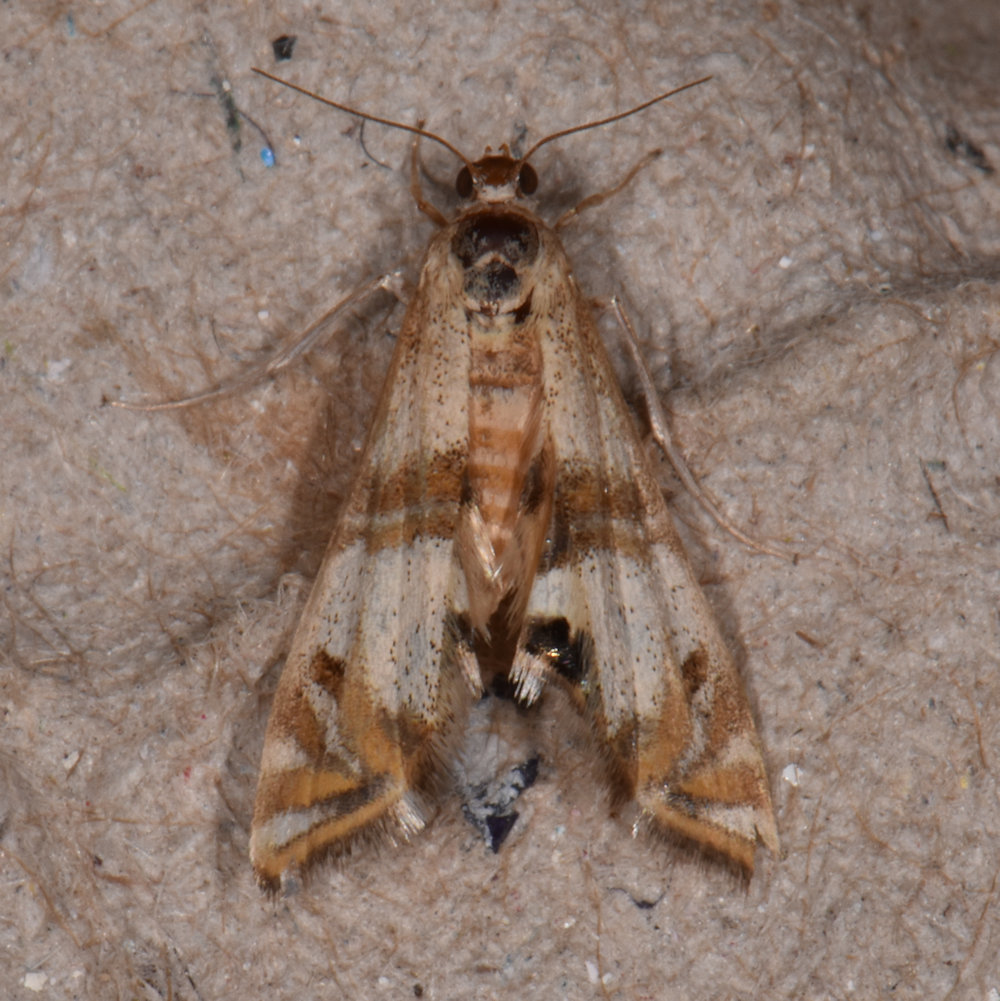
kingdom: Animalia
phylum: Arthropoda
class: Insecta
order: Lepidoptera
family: Crambidae
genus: Petrophila
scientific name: Petrophila bifascialis
